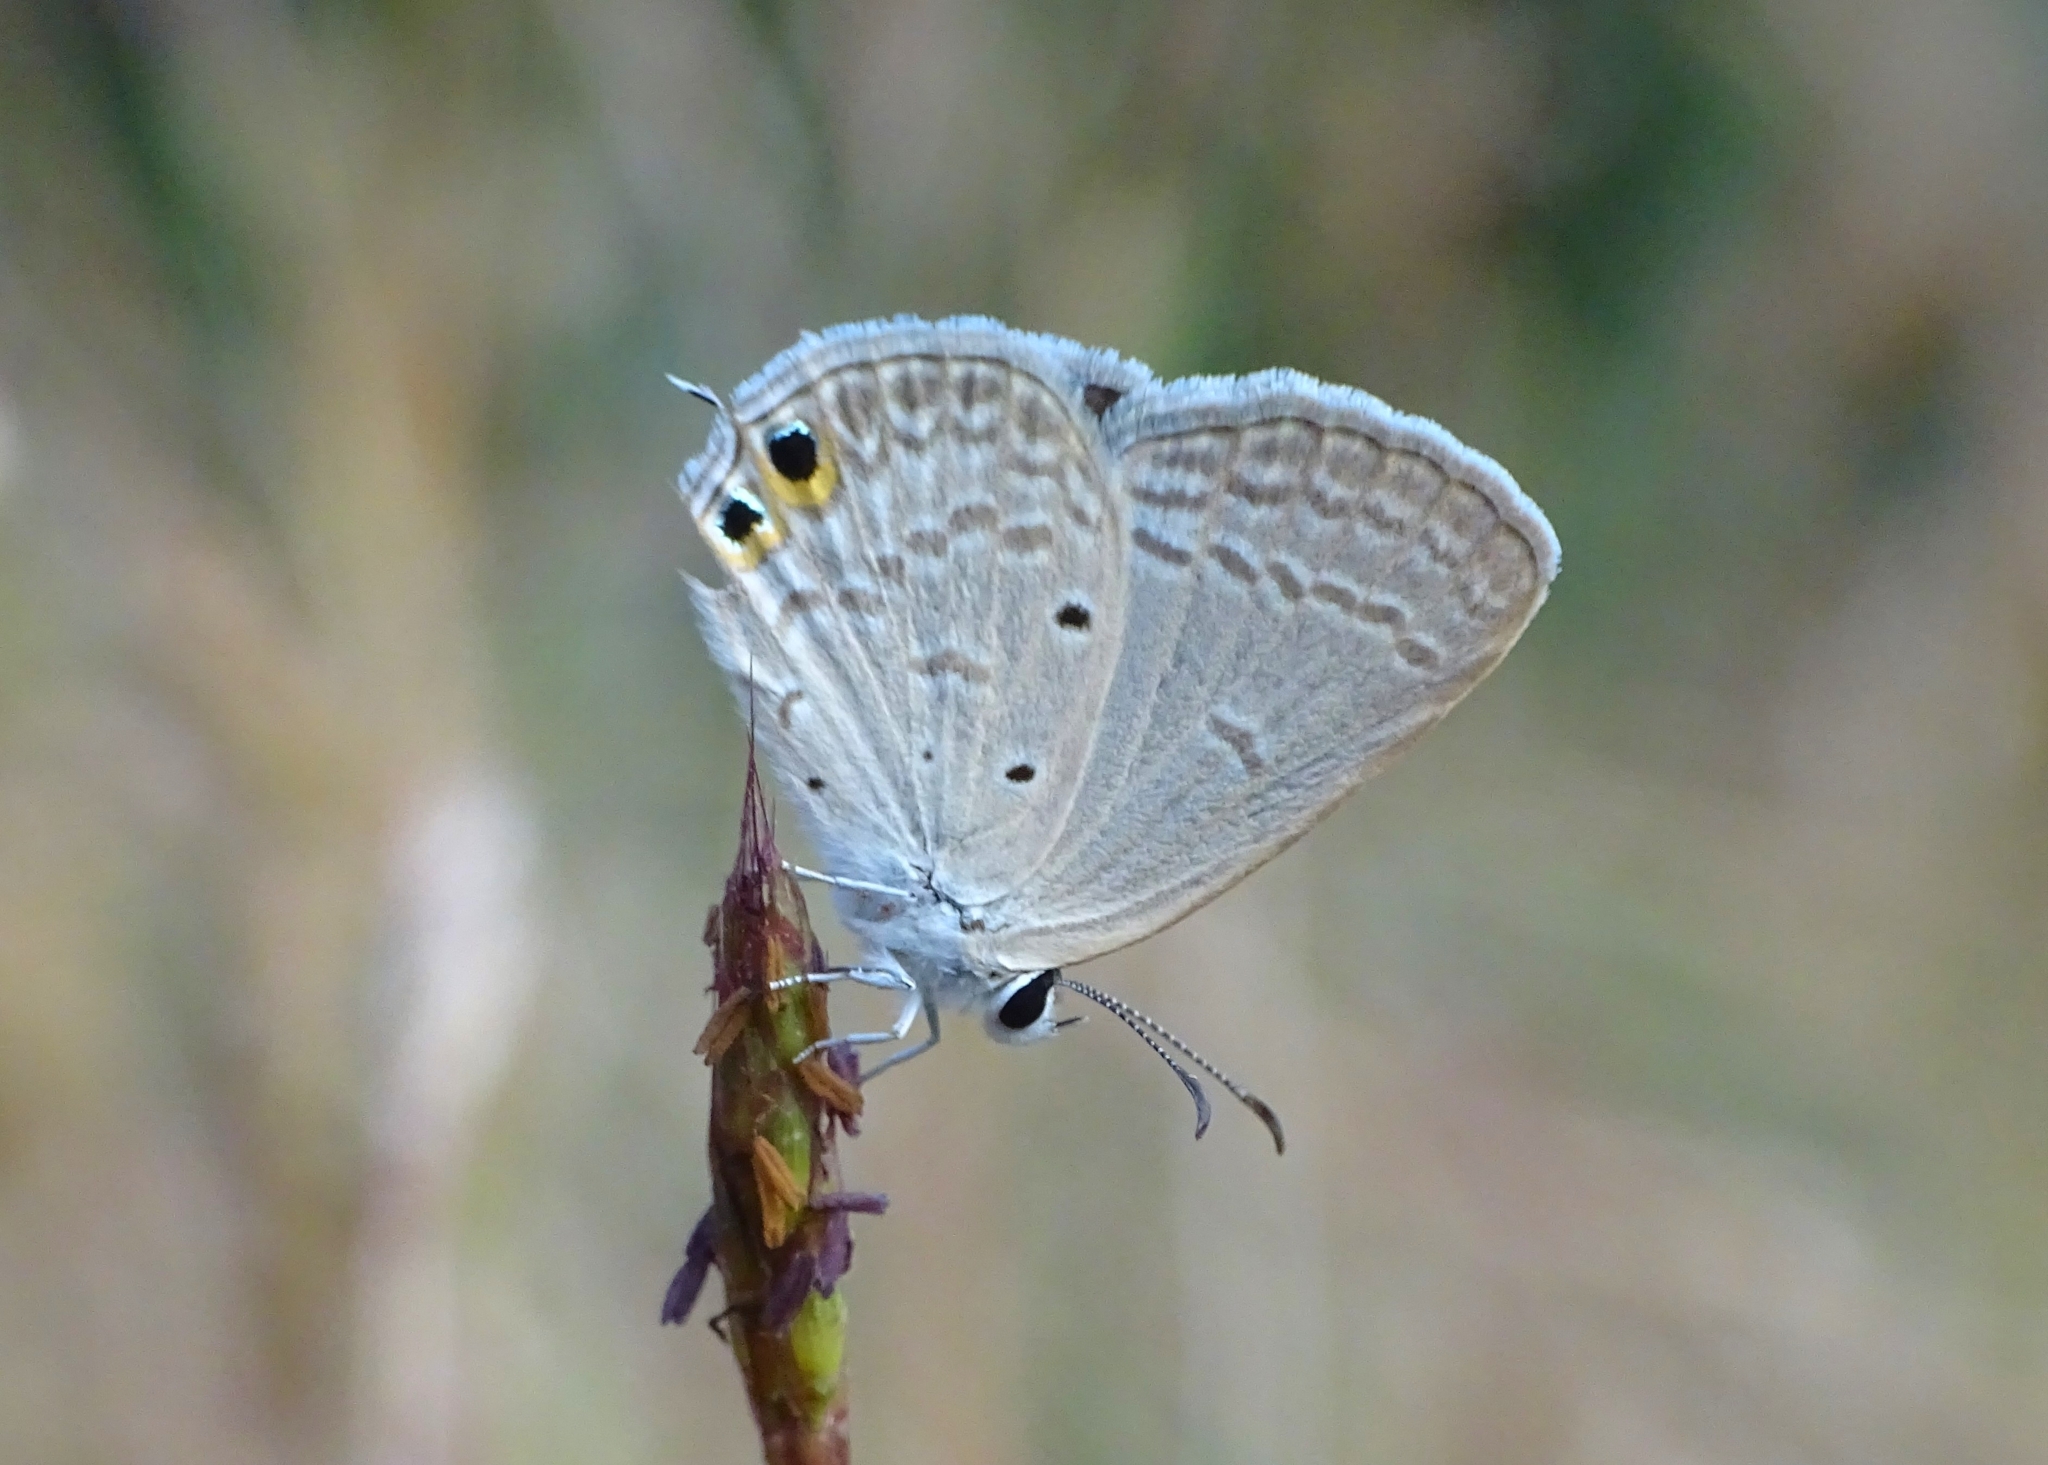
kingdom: Animalia
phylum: Arthropoda
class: Insecta
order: Lepidoptera
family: Lycaenidae
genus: Euchrysops
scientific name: Euchrysops cnejus
